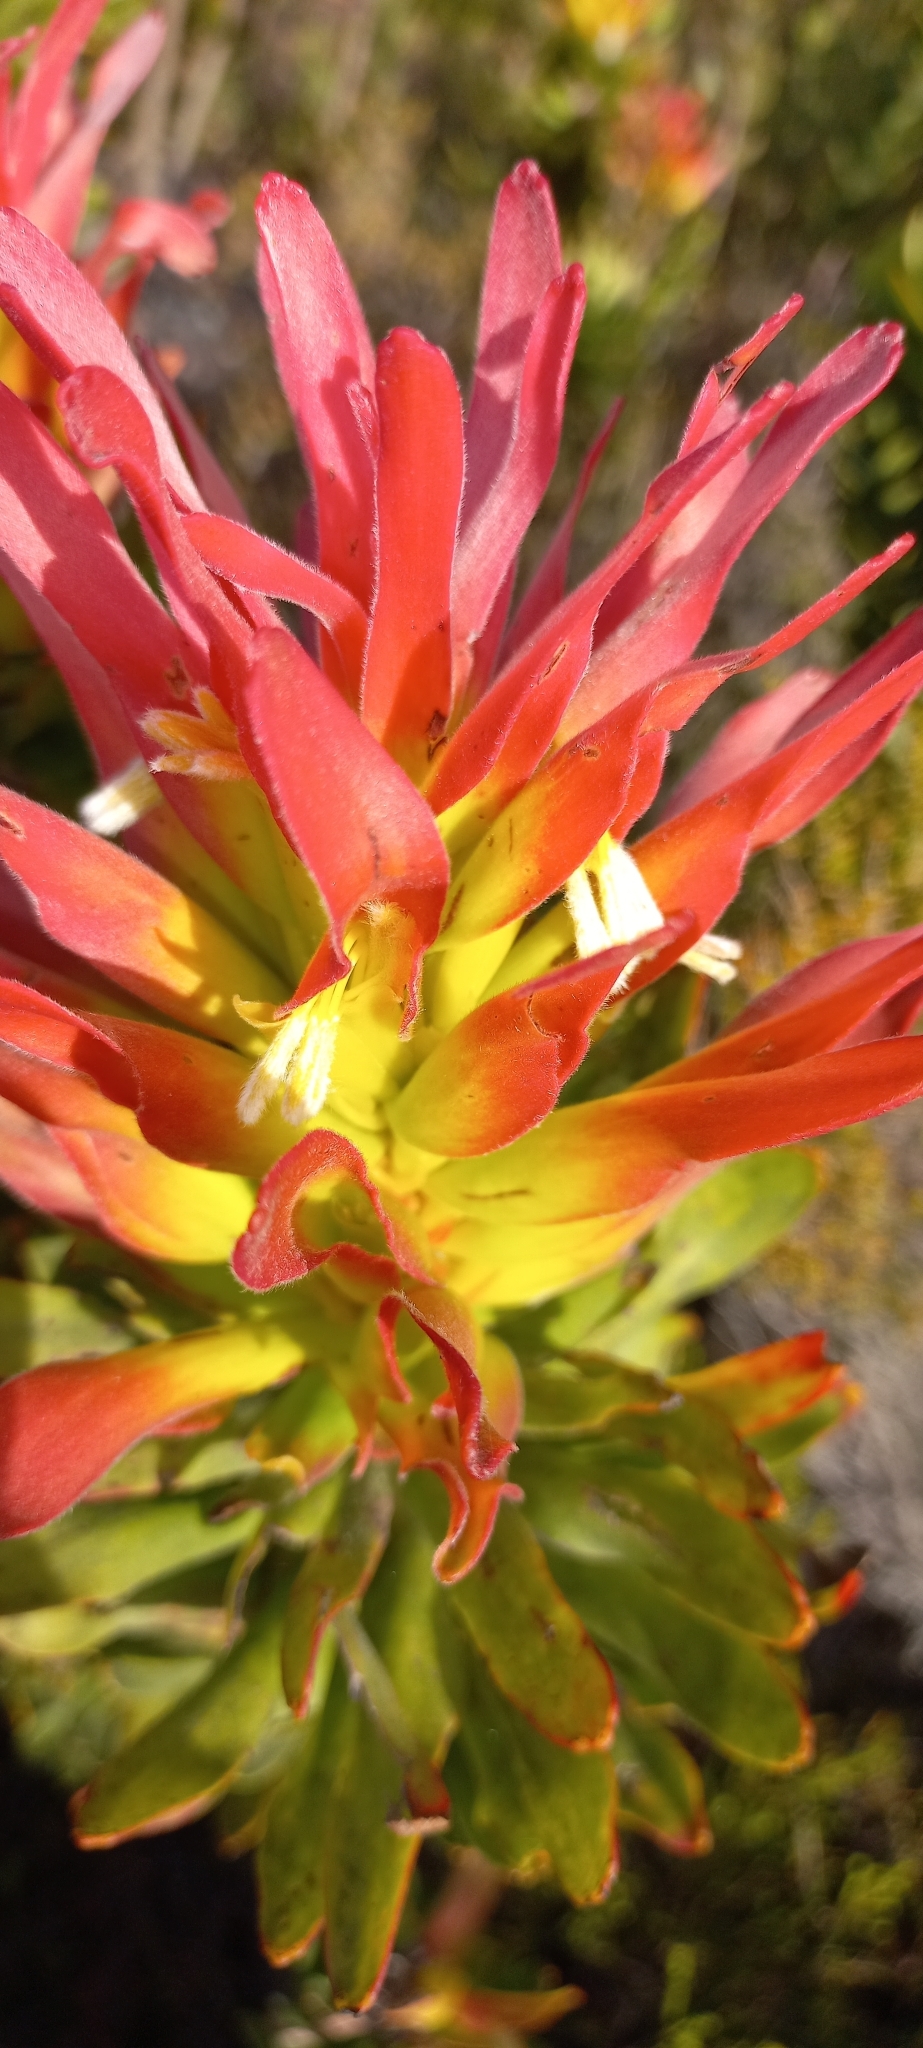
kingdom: Plantae
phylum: Tracheophyta
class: Magnoliopsida
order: Proteales
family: Proteaceae
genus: Mimetes
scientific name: Mimetes cucullatus
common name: Common pagoda
